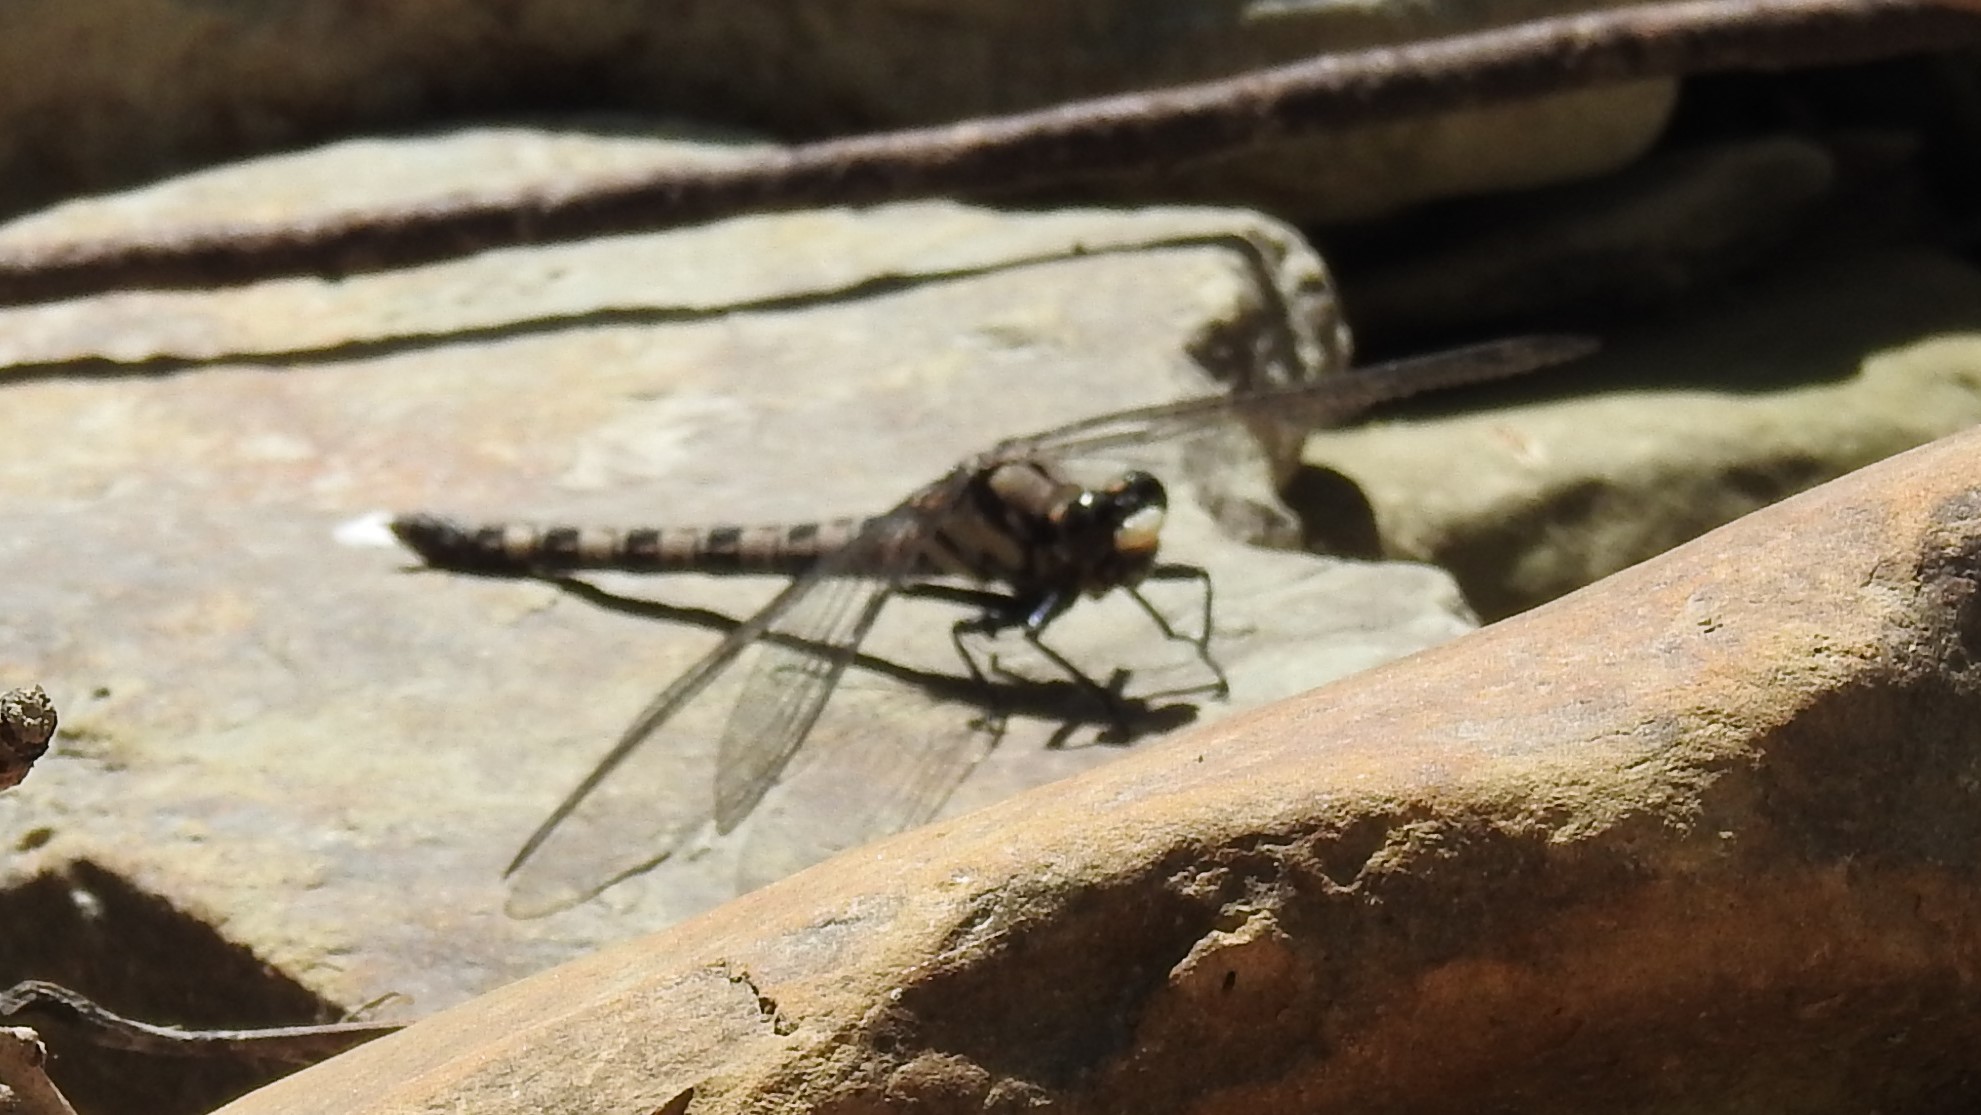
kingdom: Animalia
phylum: Arthropoda
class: Insecta
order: Odonata
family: Petaluridae
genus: Tachopteryx
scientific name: Tachopteryx thoreyi
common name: Gray petaltail
